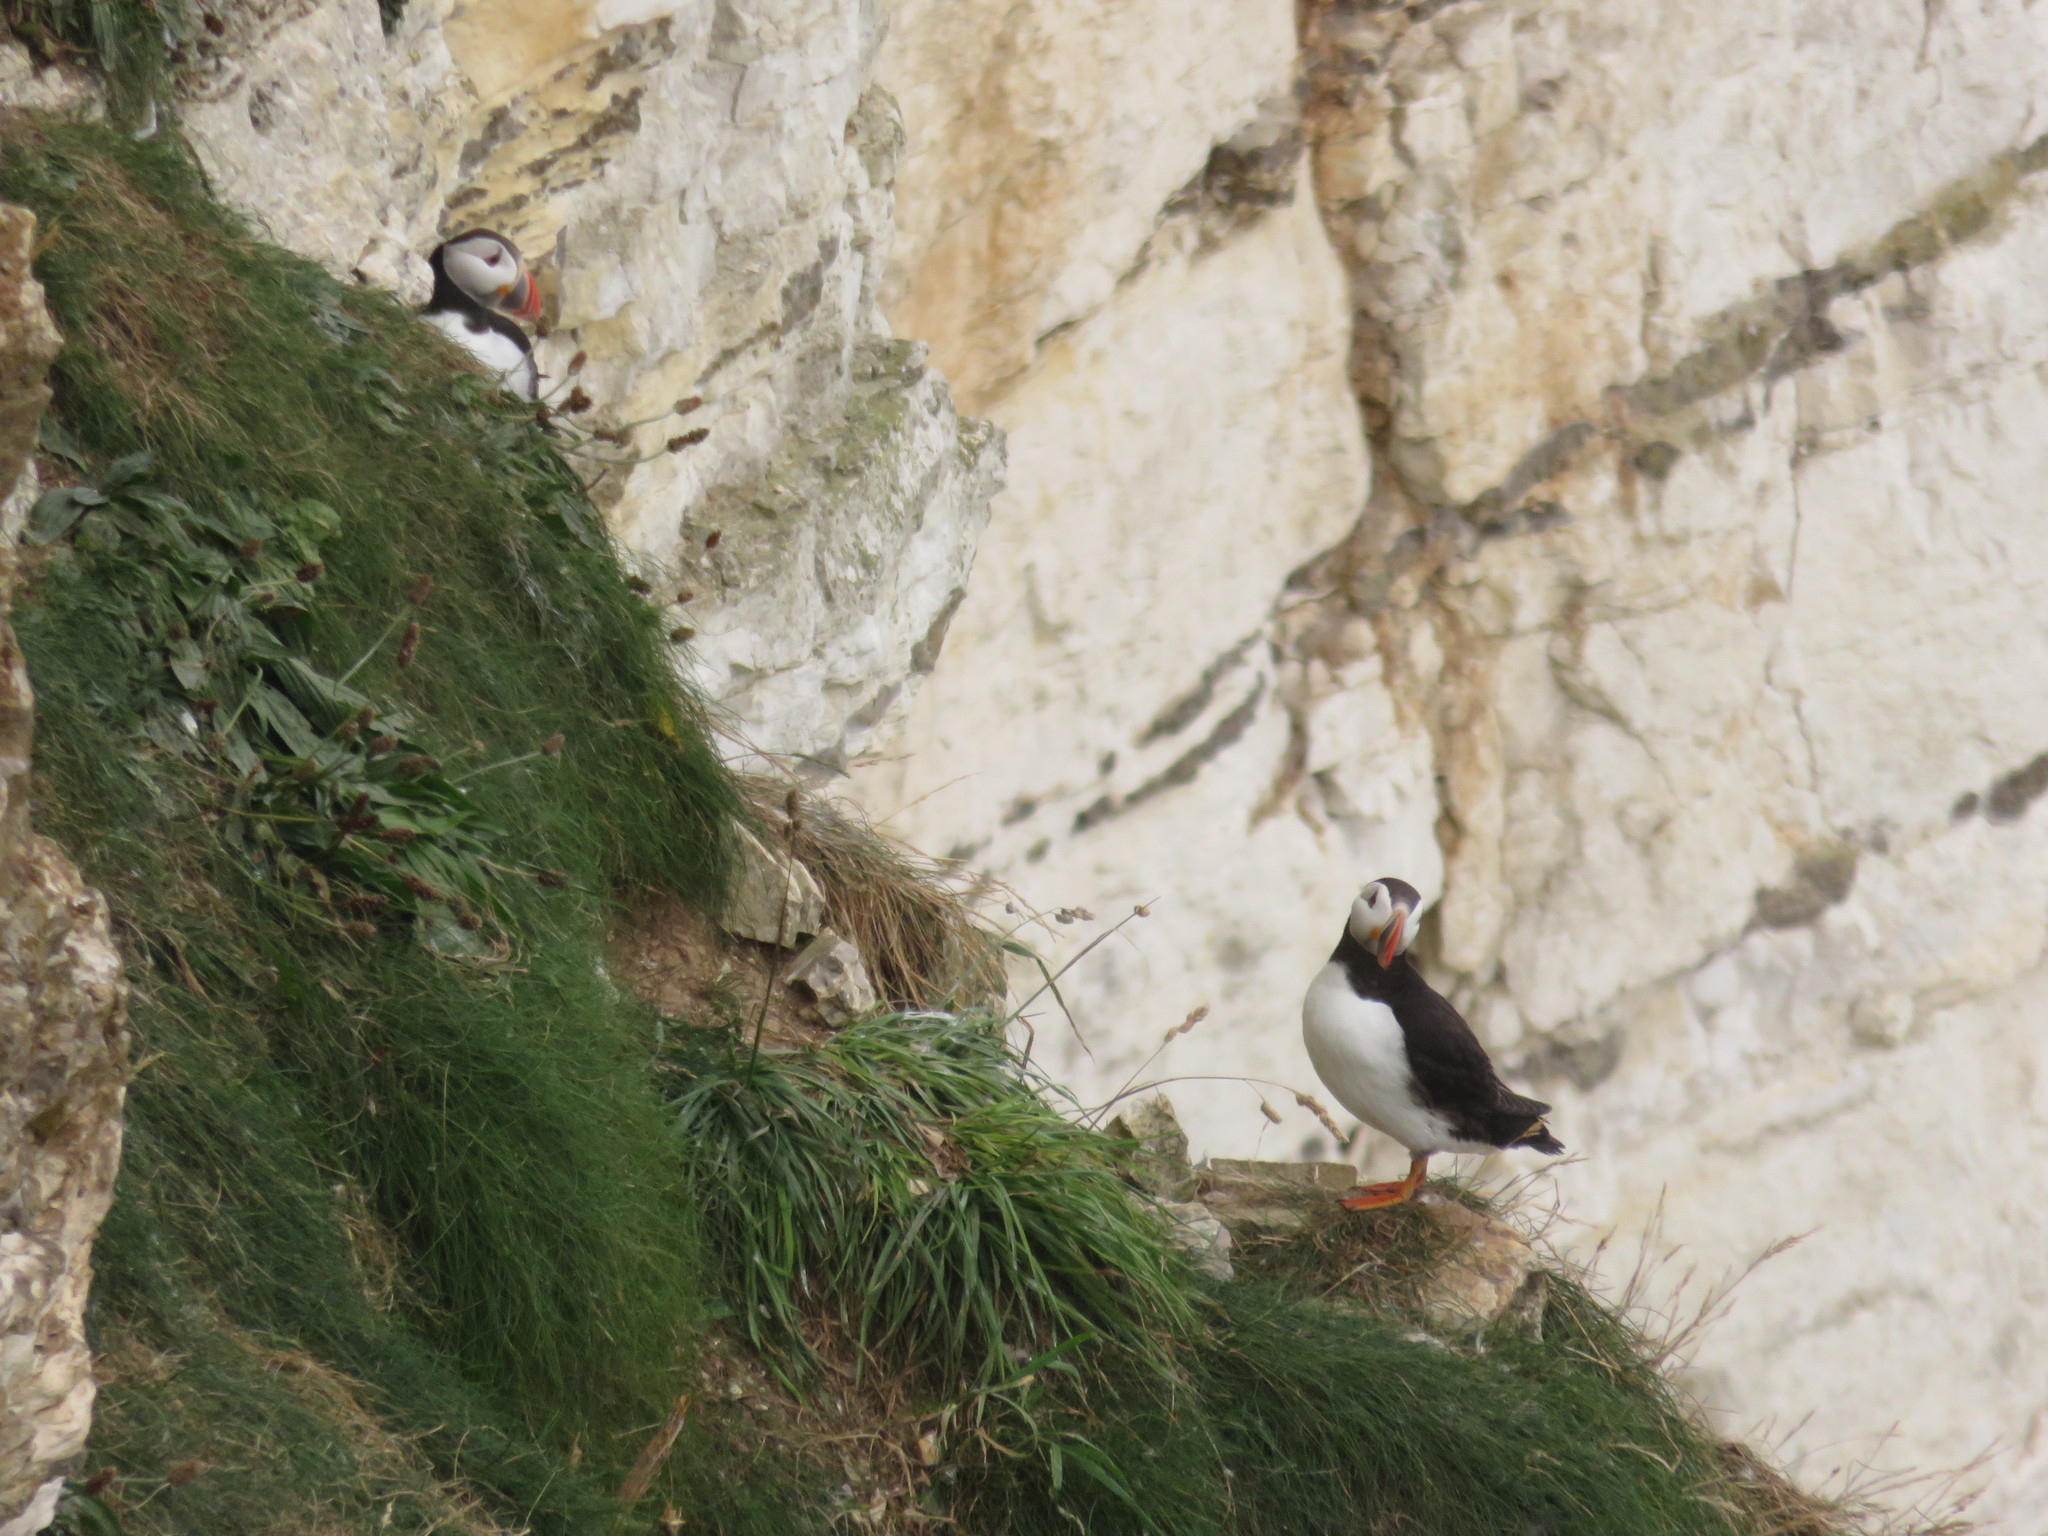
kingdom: Animalia
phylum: Chordata
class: Aves
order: Charadriiformes
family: Alcidae
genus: Fratercula
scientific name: Fratercula arctica
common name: Atlantic puffin
